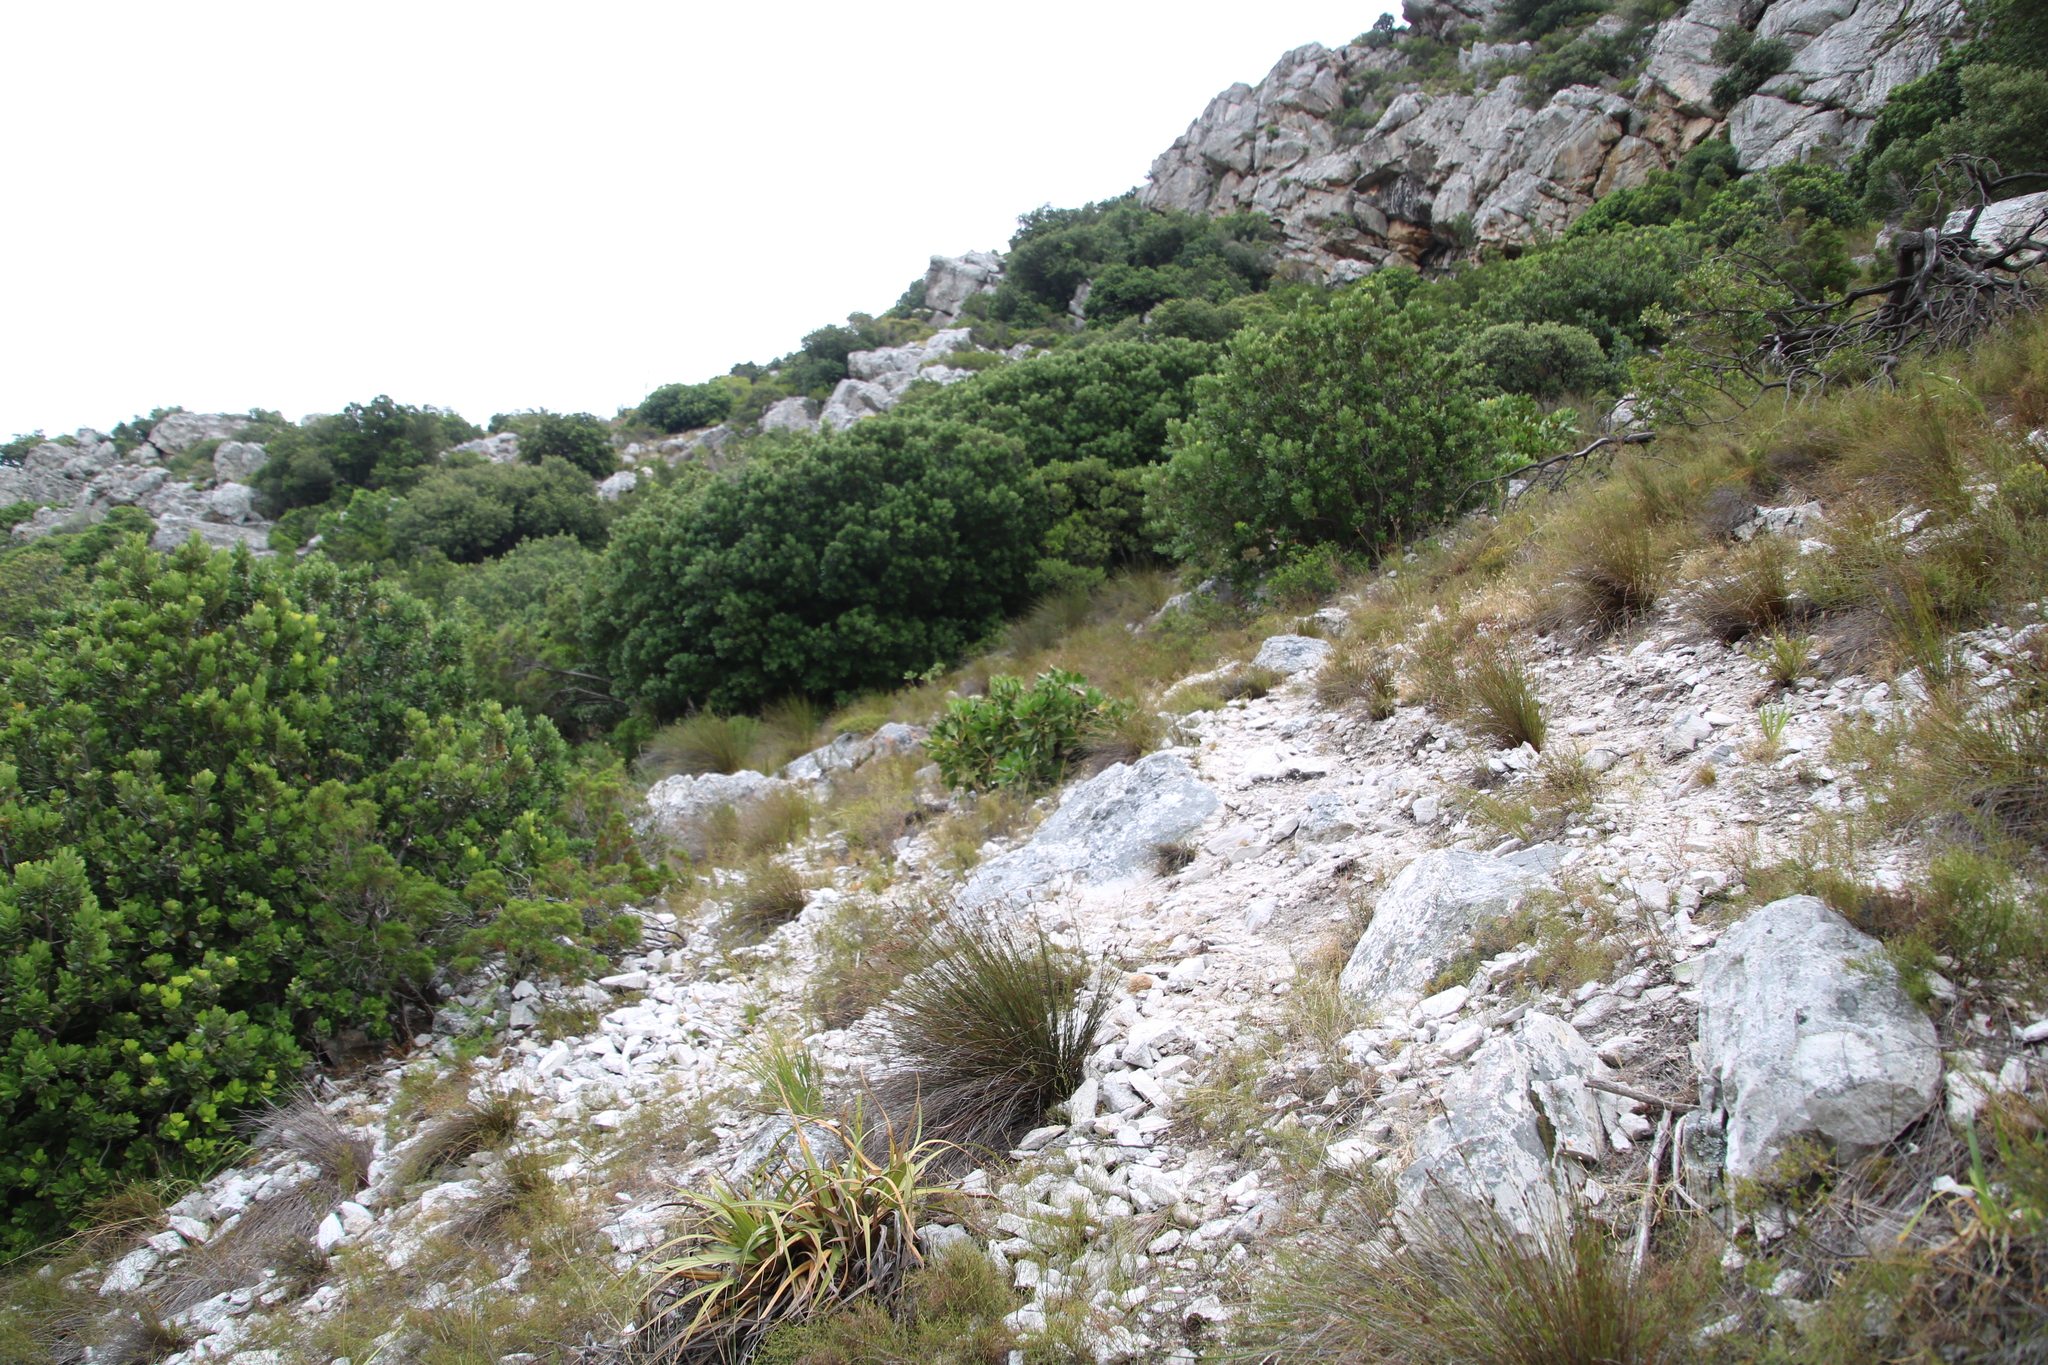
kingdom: Plantae
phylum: Tracheophyta
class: Magnoliopsida
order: Proteales
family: Proteaceae
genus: Protea
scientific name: Protea cynaroides
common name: King protea
